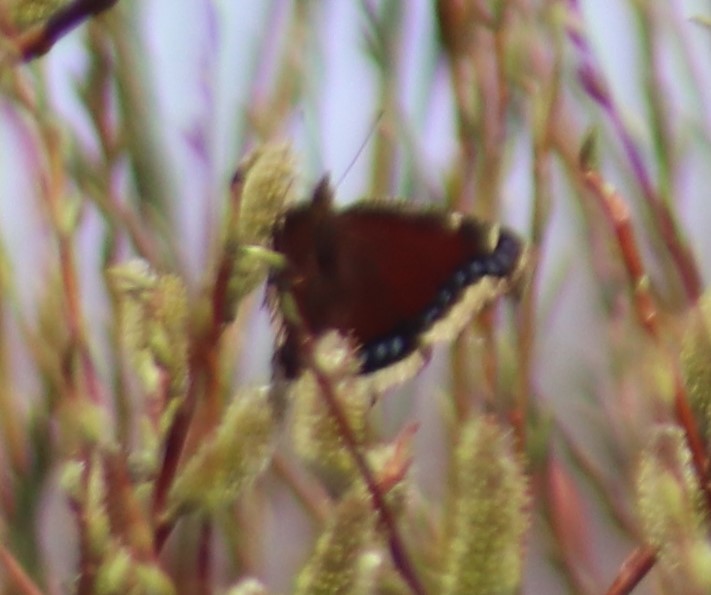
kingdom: Animalia
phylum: Arthropoda
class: Insecta
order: Lepidoptera
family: Nymphalidae
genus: Nymphalis
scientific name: Nymphalis antiopa
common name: Camberwell beauty
